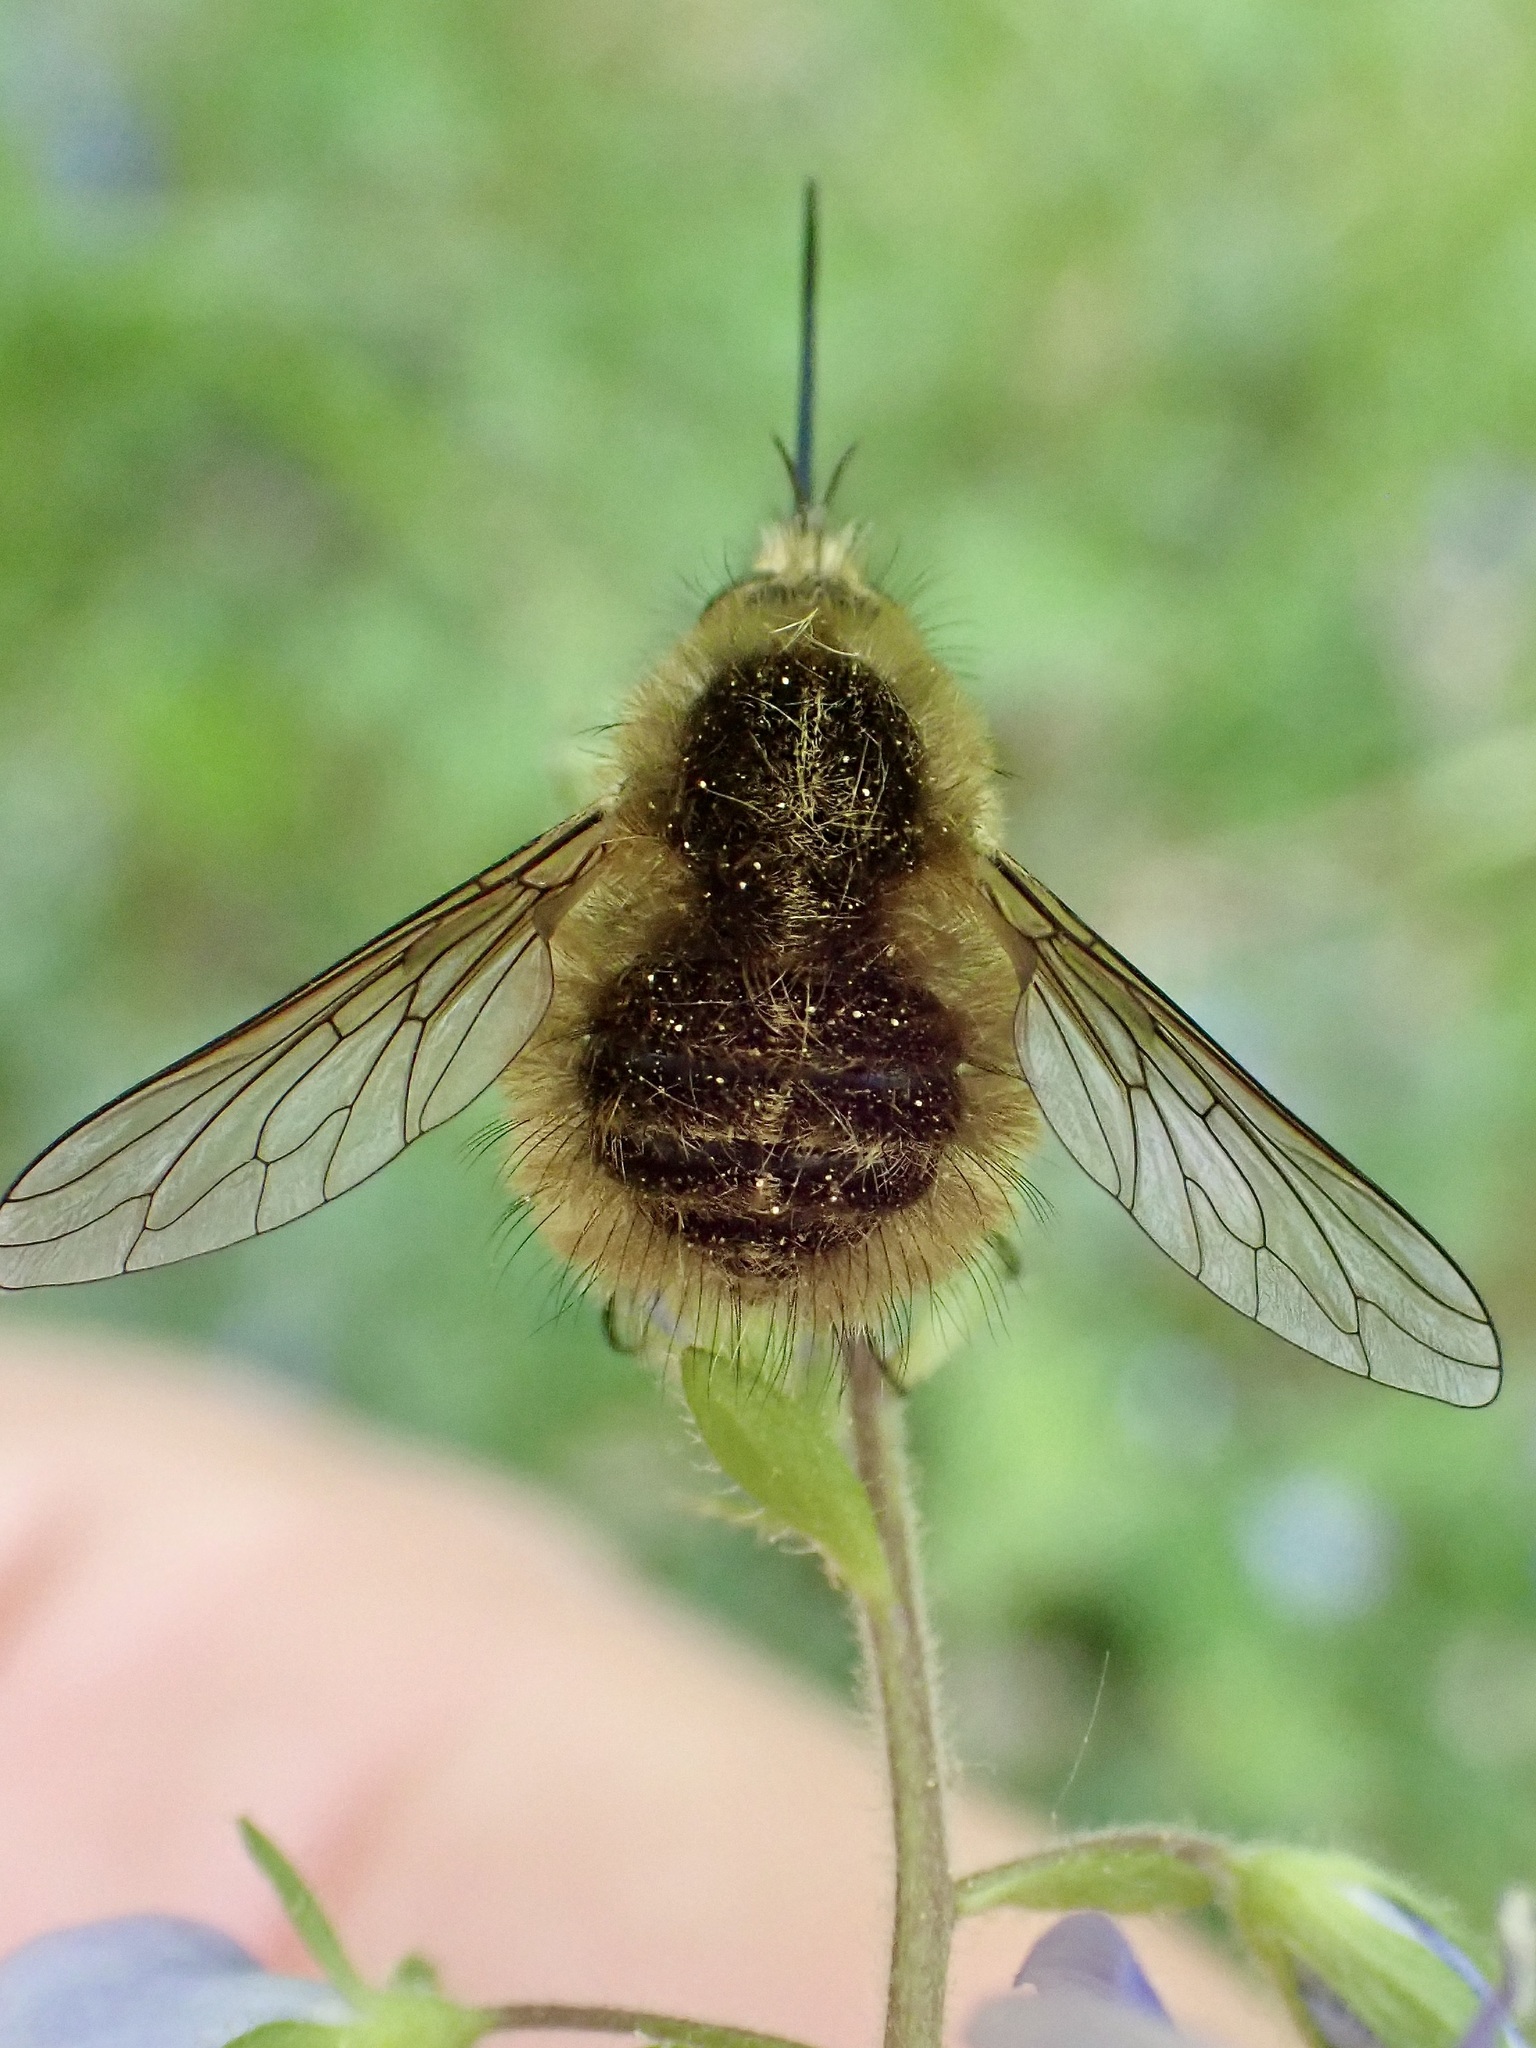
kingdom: Animalia
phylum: Arthropoda
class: Insecta
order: Diptera
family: Bombyliidae
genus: Bombylius
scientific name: Bombylius venosus
